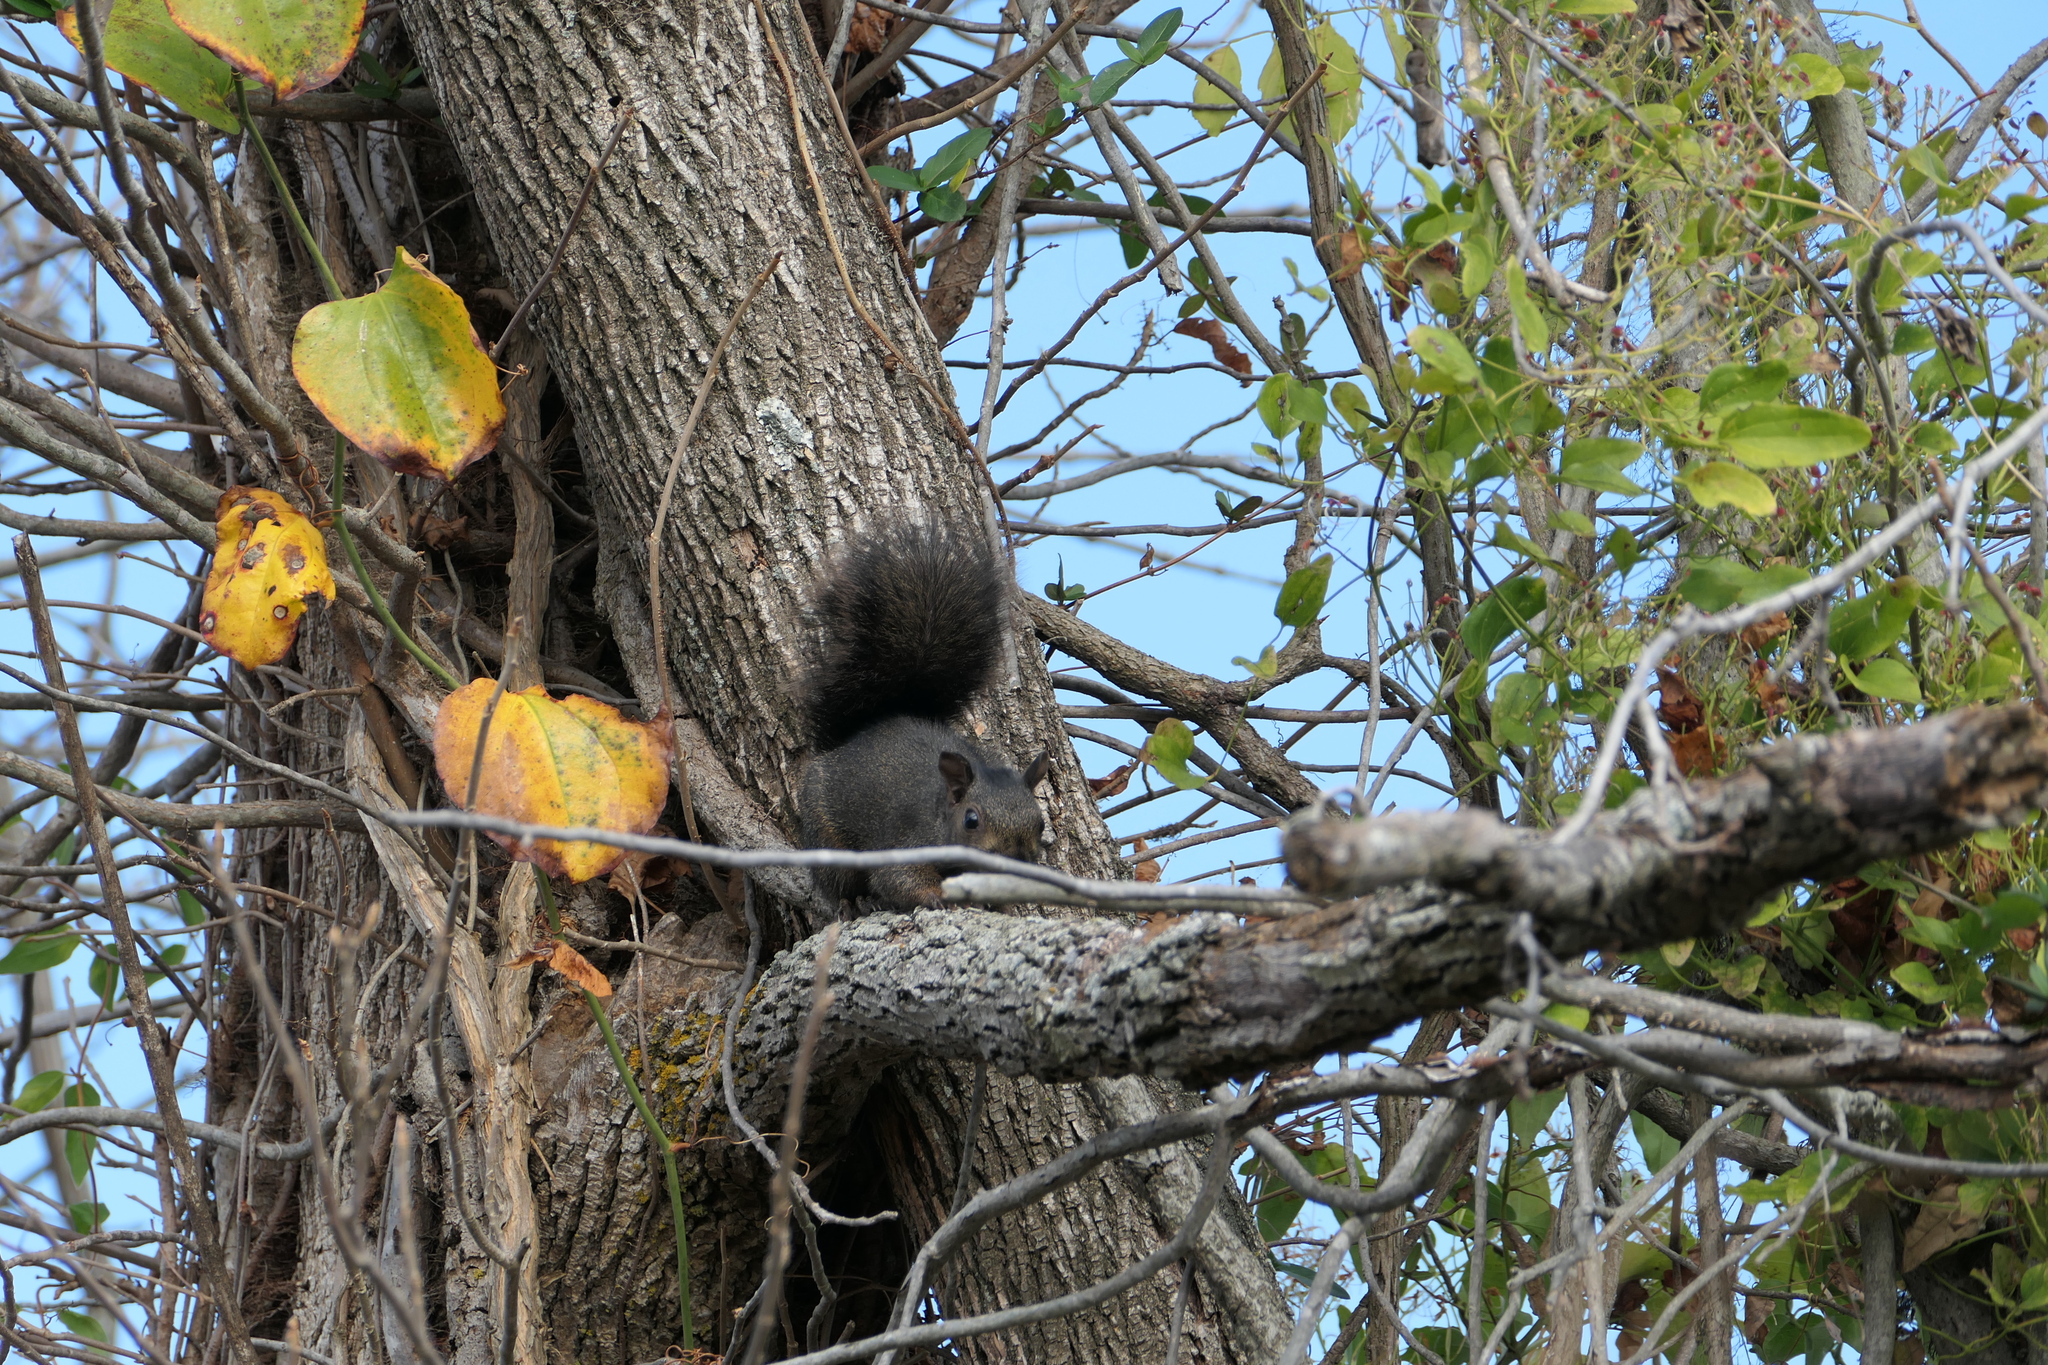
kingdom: Animalia
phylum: Chordata
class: Mammalia
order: Rodentia
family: Sciuridae
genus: Sciurus
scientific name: Sciurus carolinensis
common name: Eastern gray squirrel
